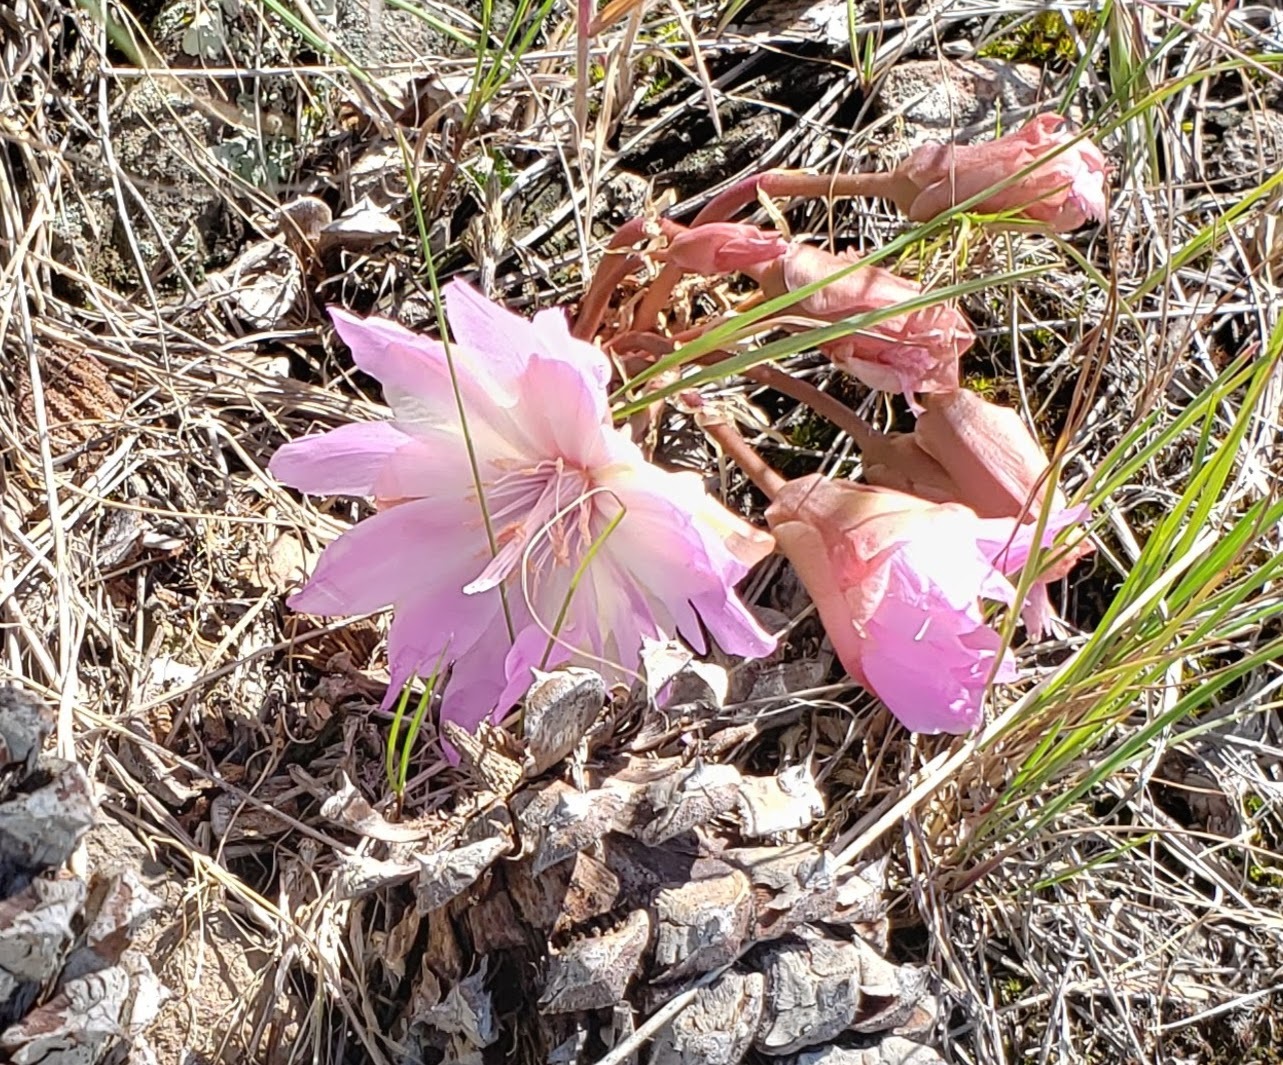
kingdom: Plantae
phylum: Tracheophyta
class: Magnoliopsida
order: Caryophyllales
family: Montiaceae
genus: Lewisia
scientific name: Lewisia rediviva
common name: Bitter-root
